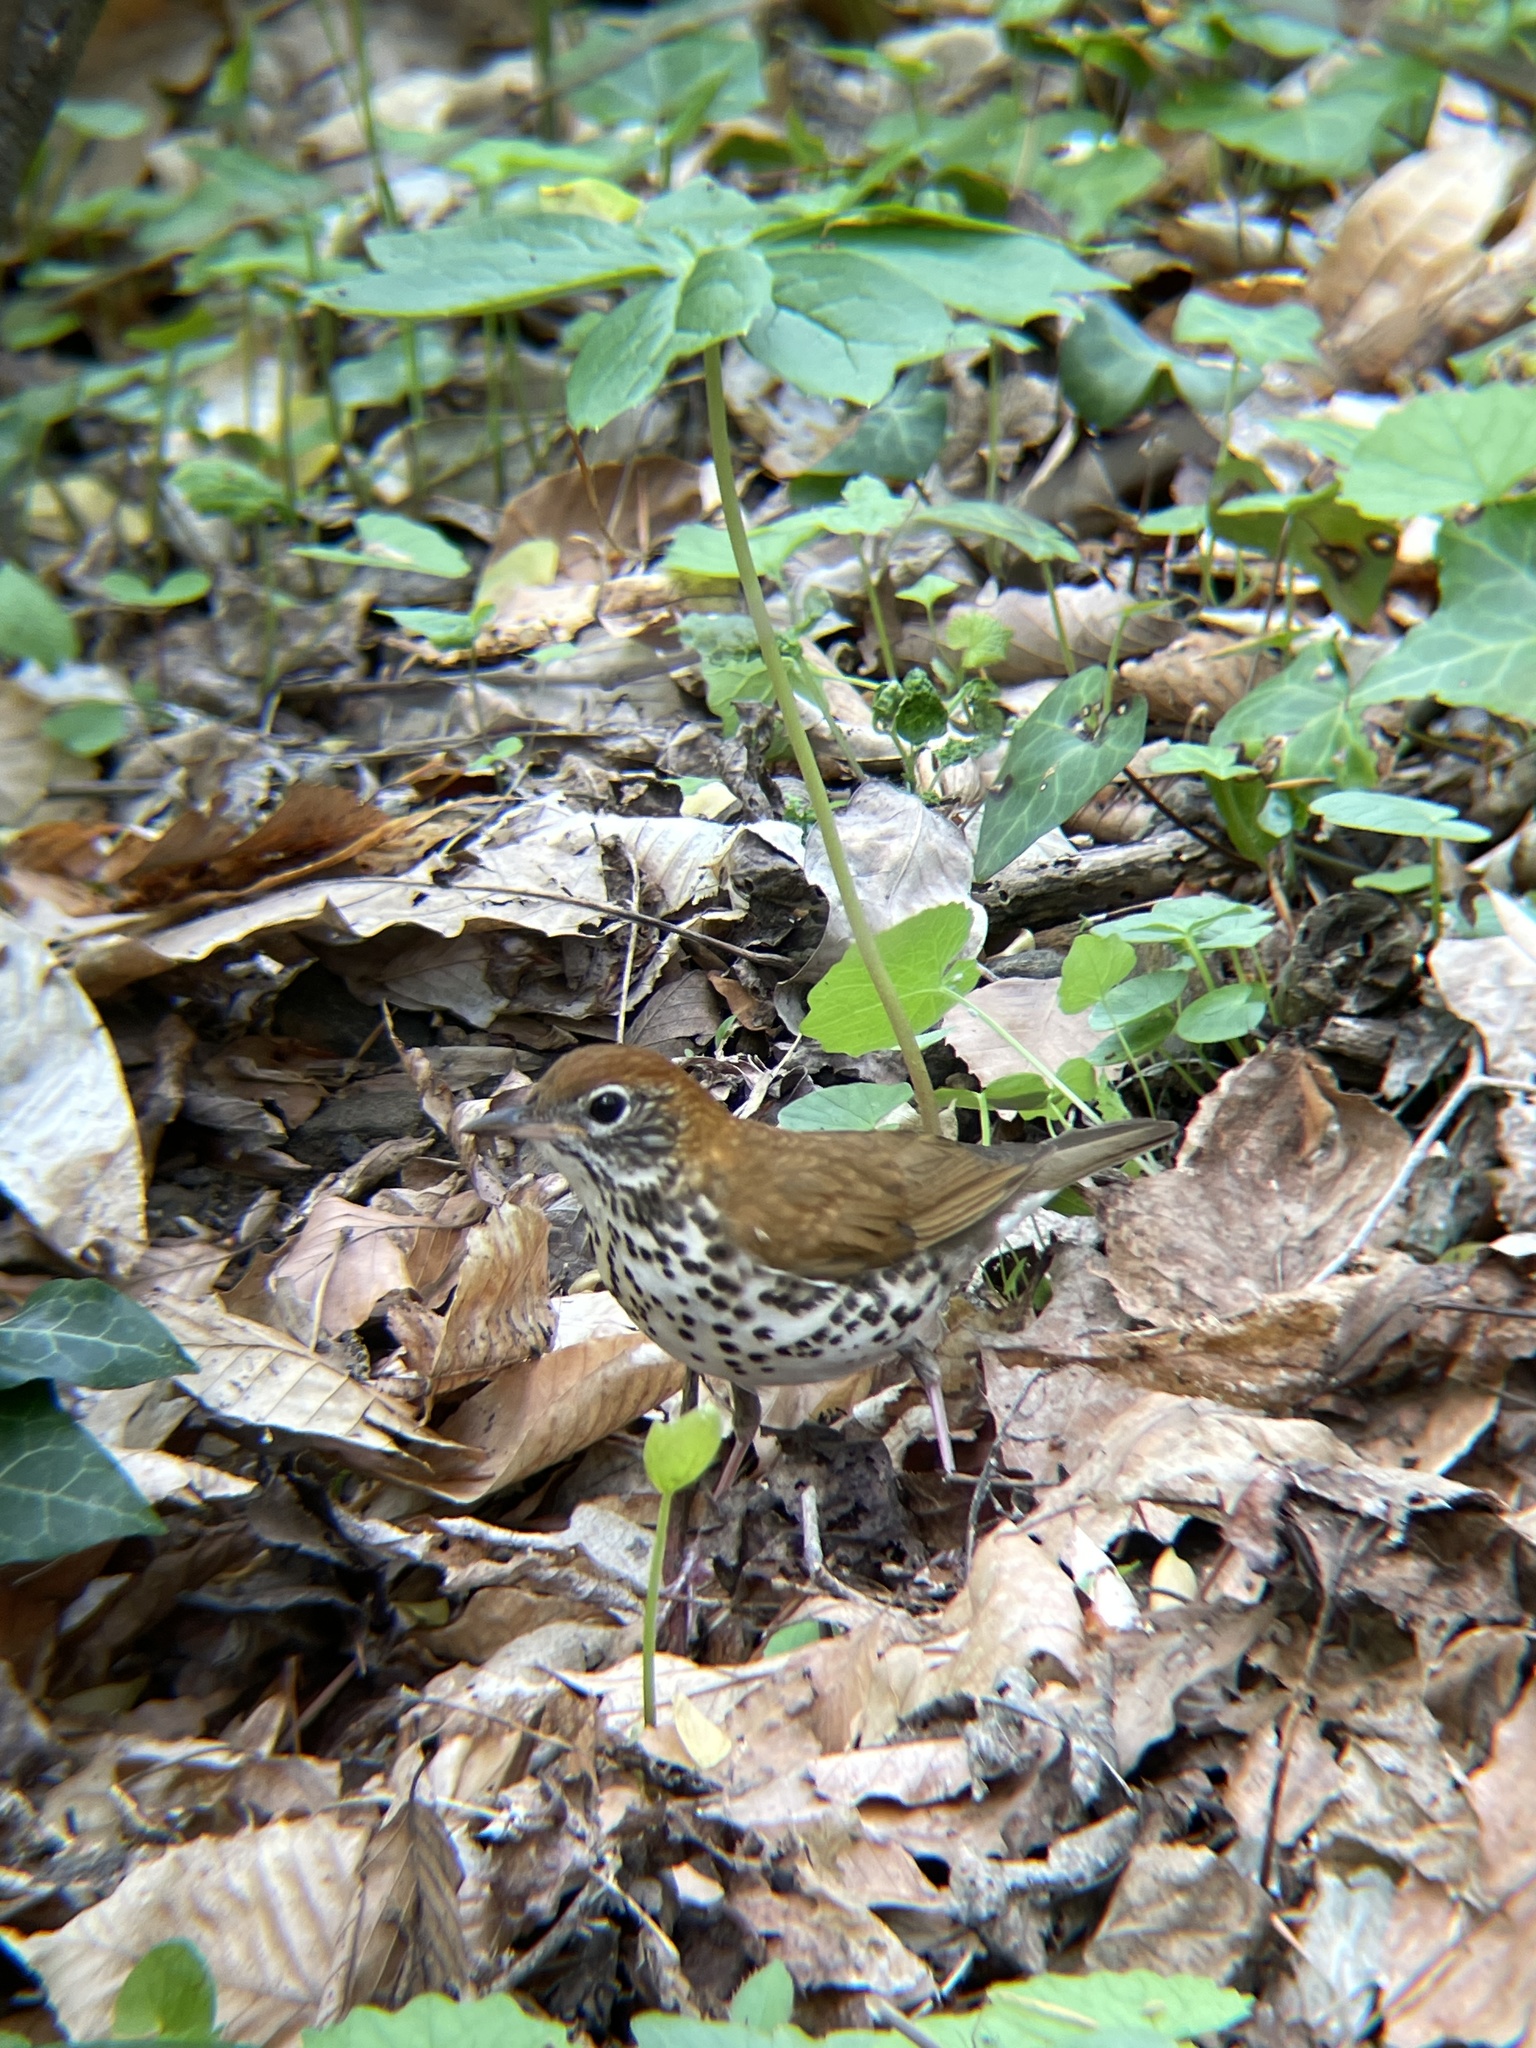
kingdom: Animalia
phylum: Chordata
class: Aves
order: Passeriformes
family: Turdidae
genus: Hylocichla
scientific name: Hylocichla mustelina
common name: Wood thrush
